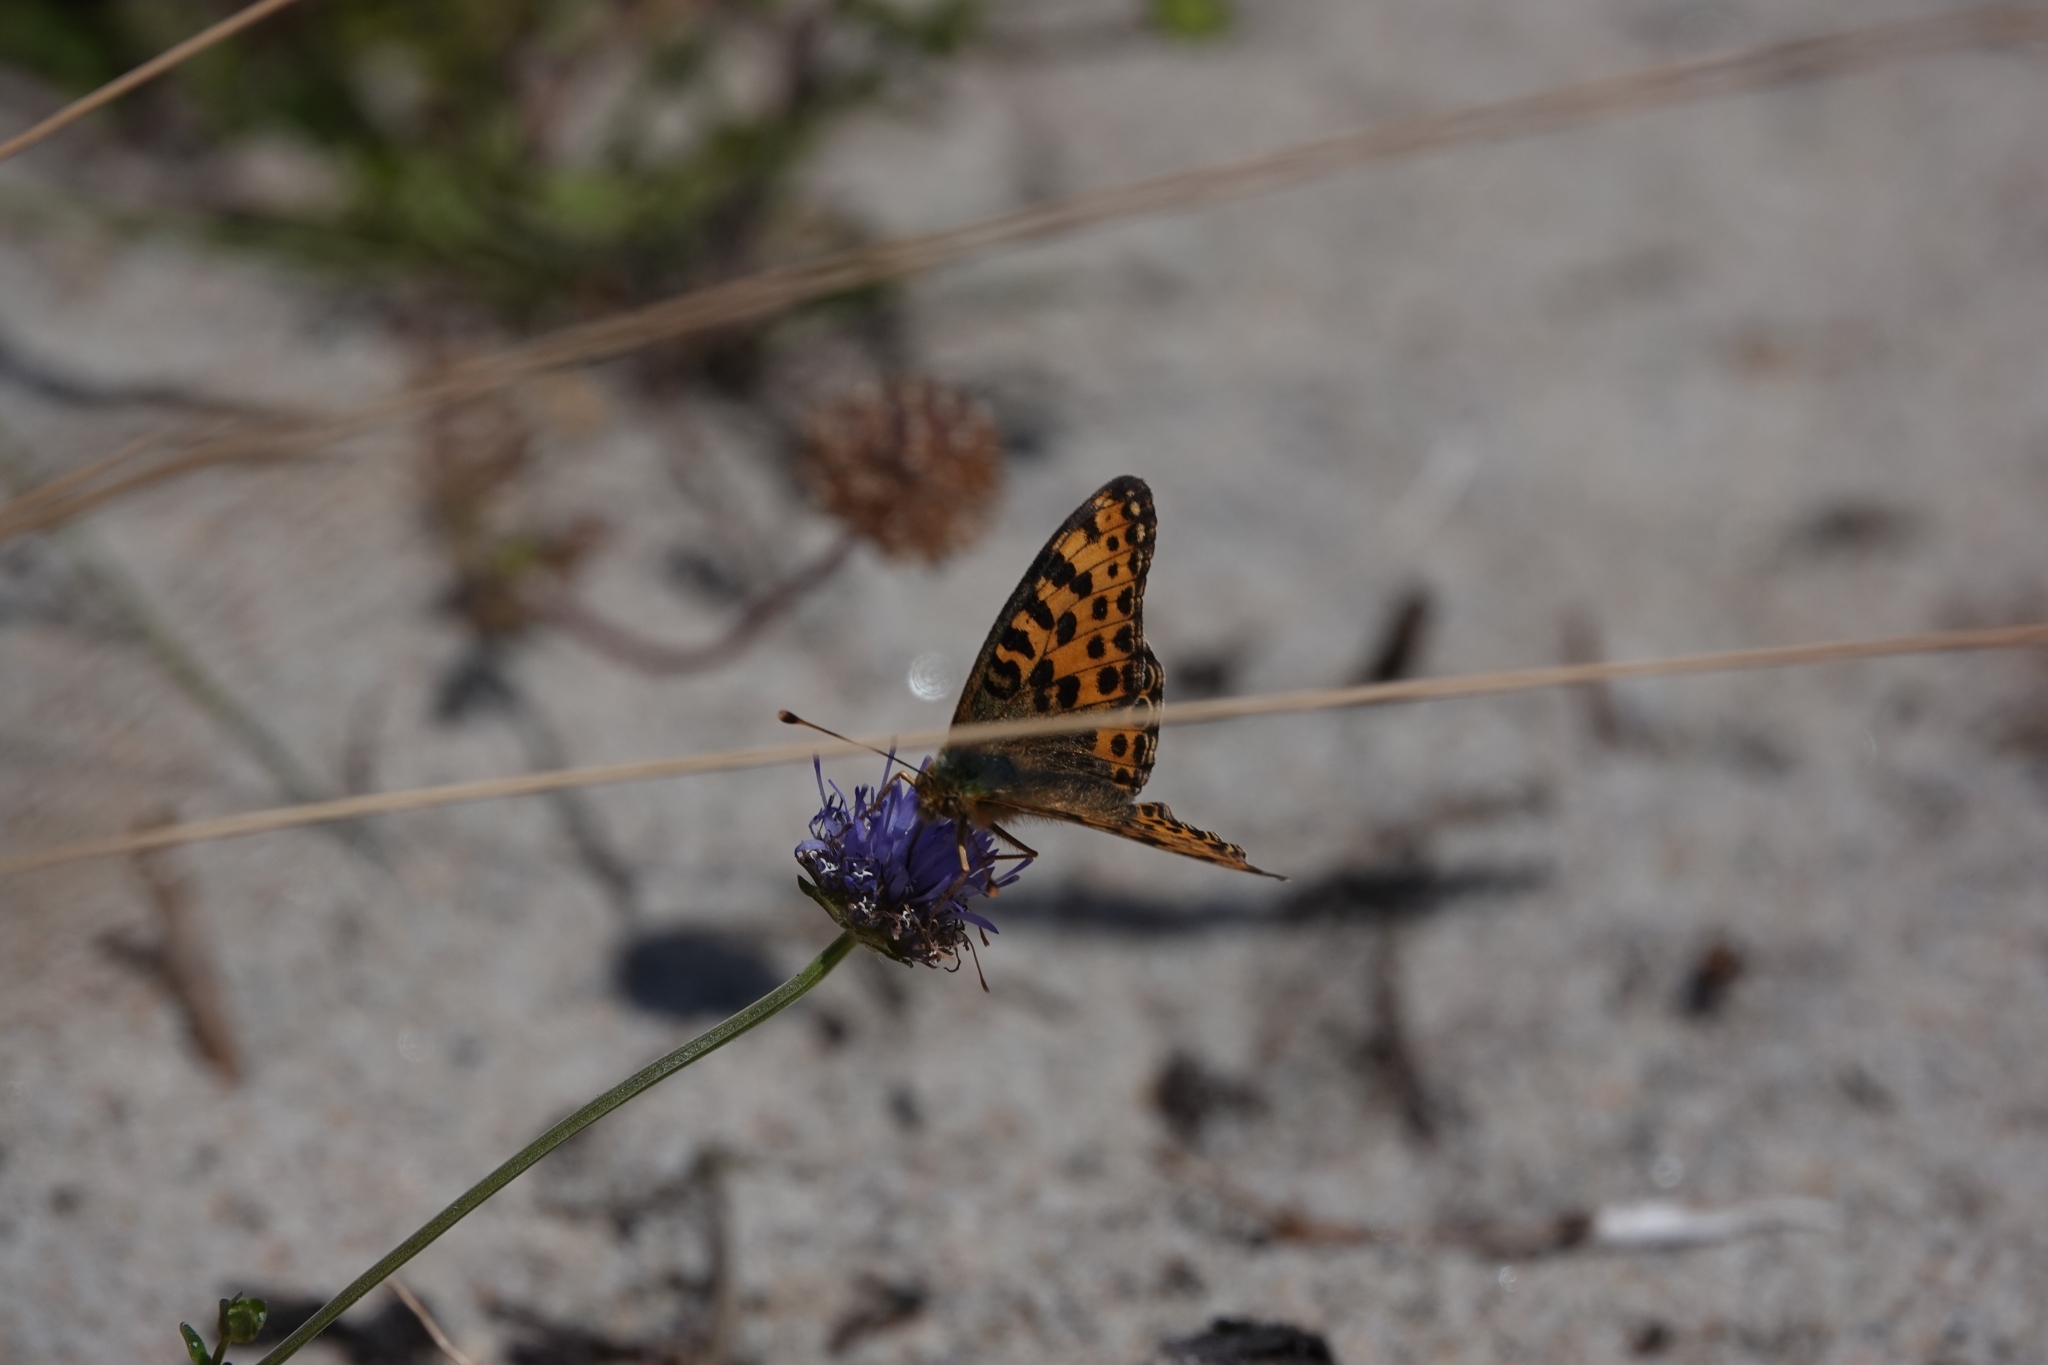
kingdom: Animalia
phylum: Arthropoda
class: Insecta
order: Lepidoptera
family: Nymphalidae
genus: Issoria
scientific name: Issoria lathonia
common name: Queen of spain fritillary
